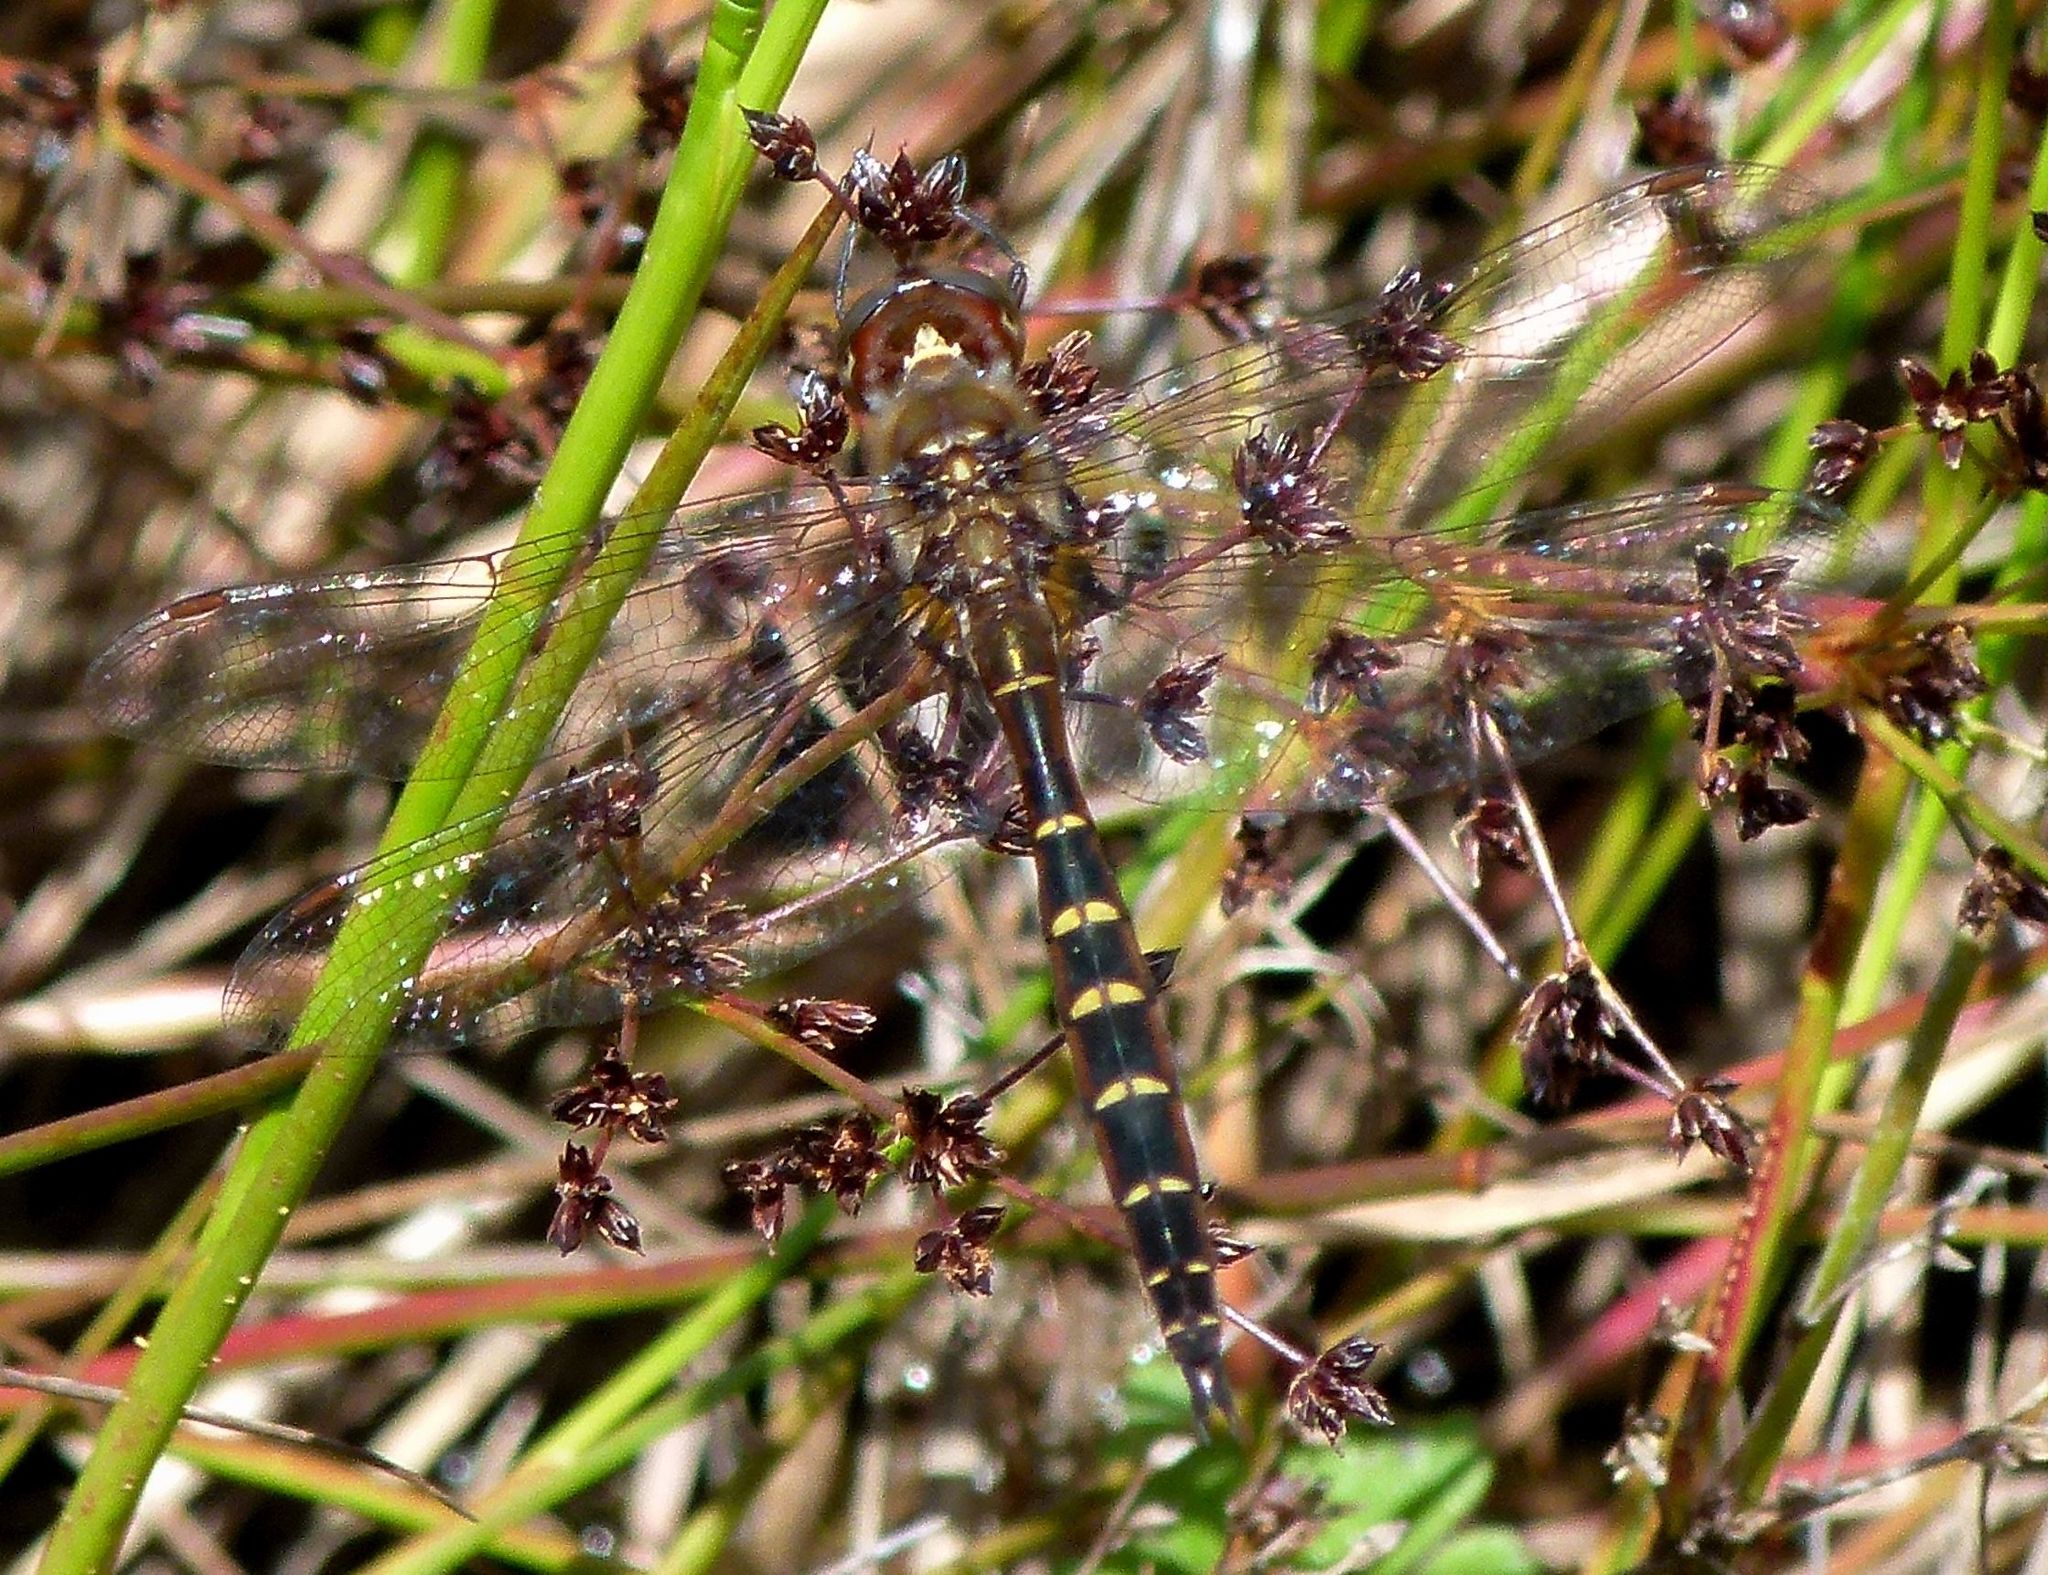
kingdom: Animalia
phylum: Arthropoda
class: Insecta
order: Odonata
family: Corduliidae
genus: Procordulia
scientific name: Procordulia smithii
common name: Ranger dragonfly
